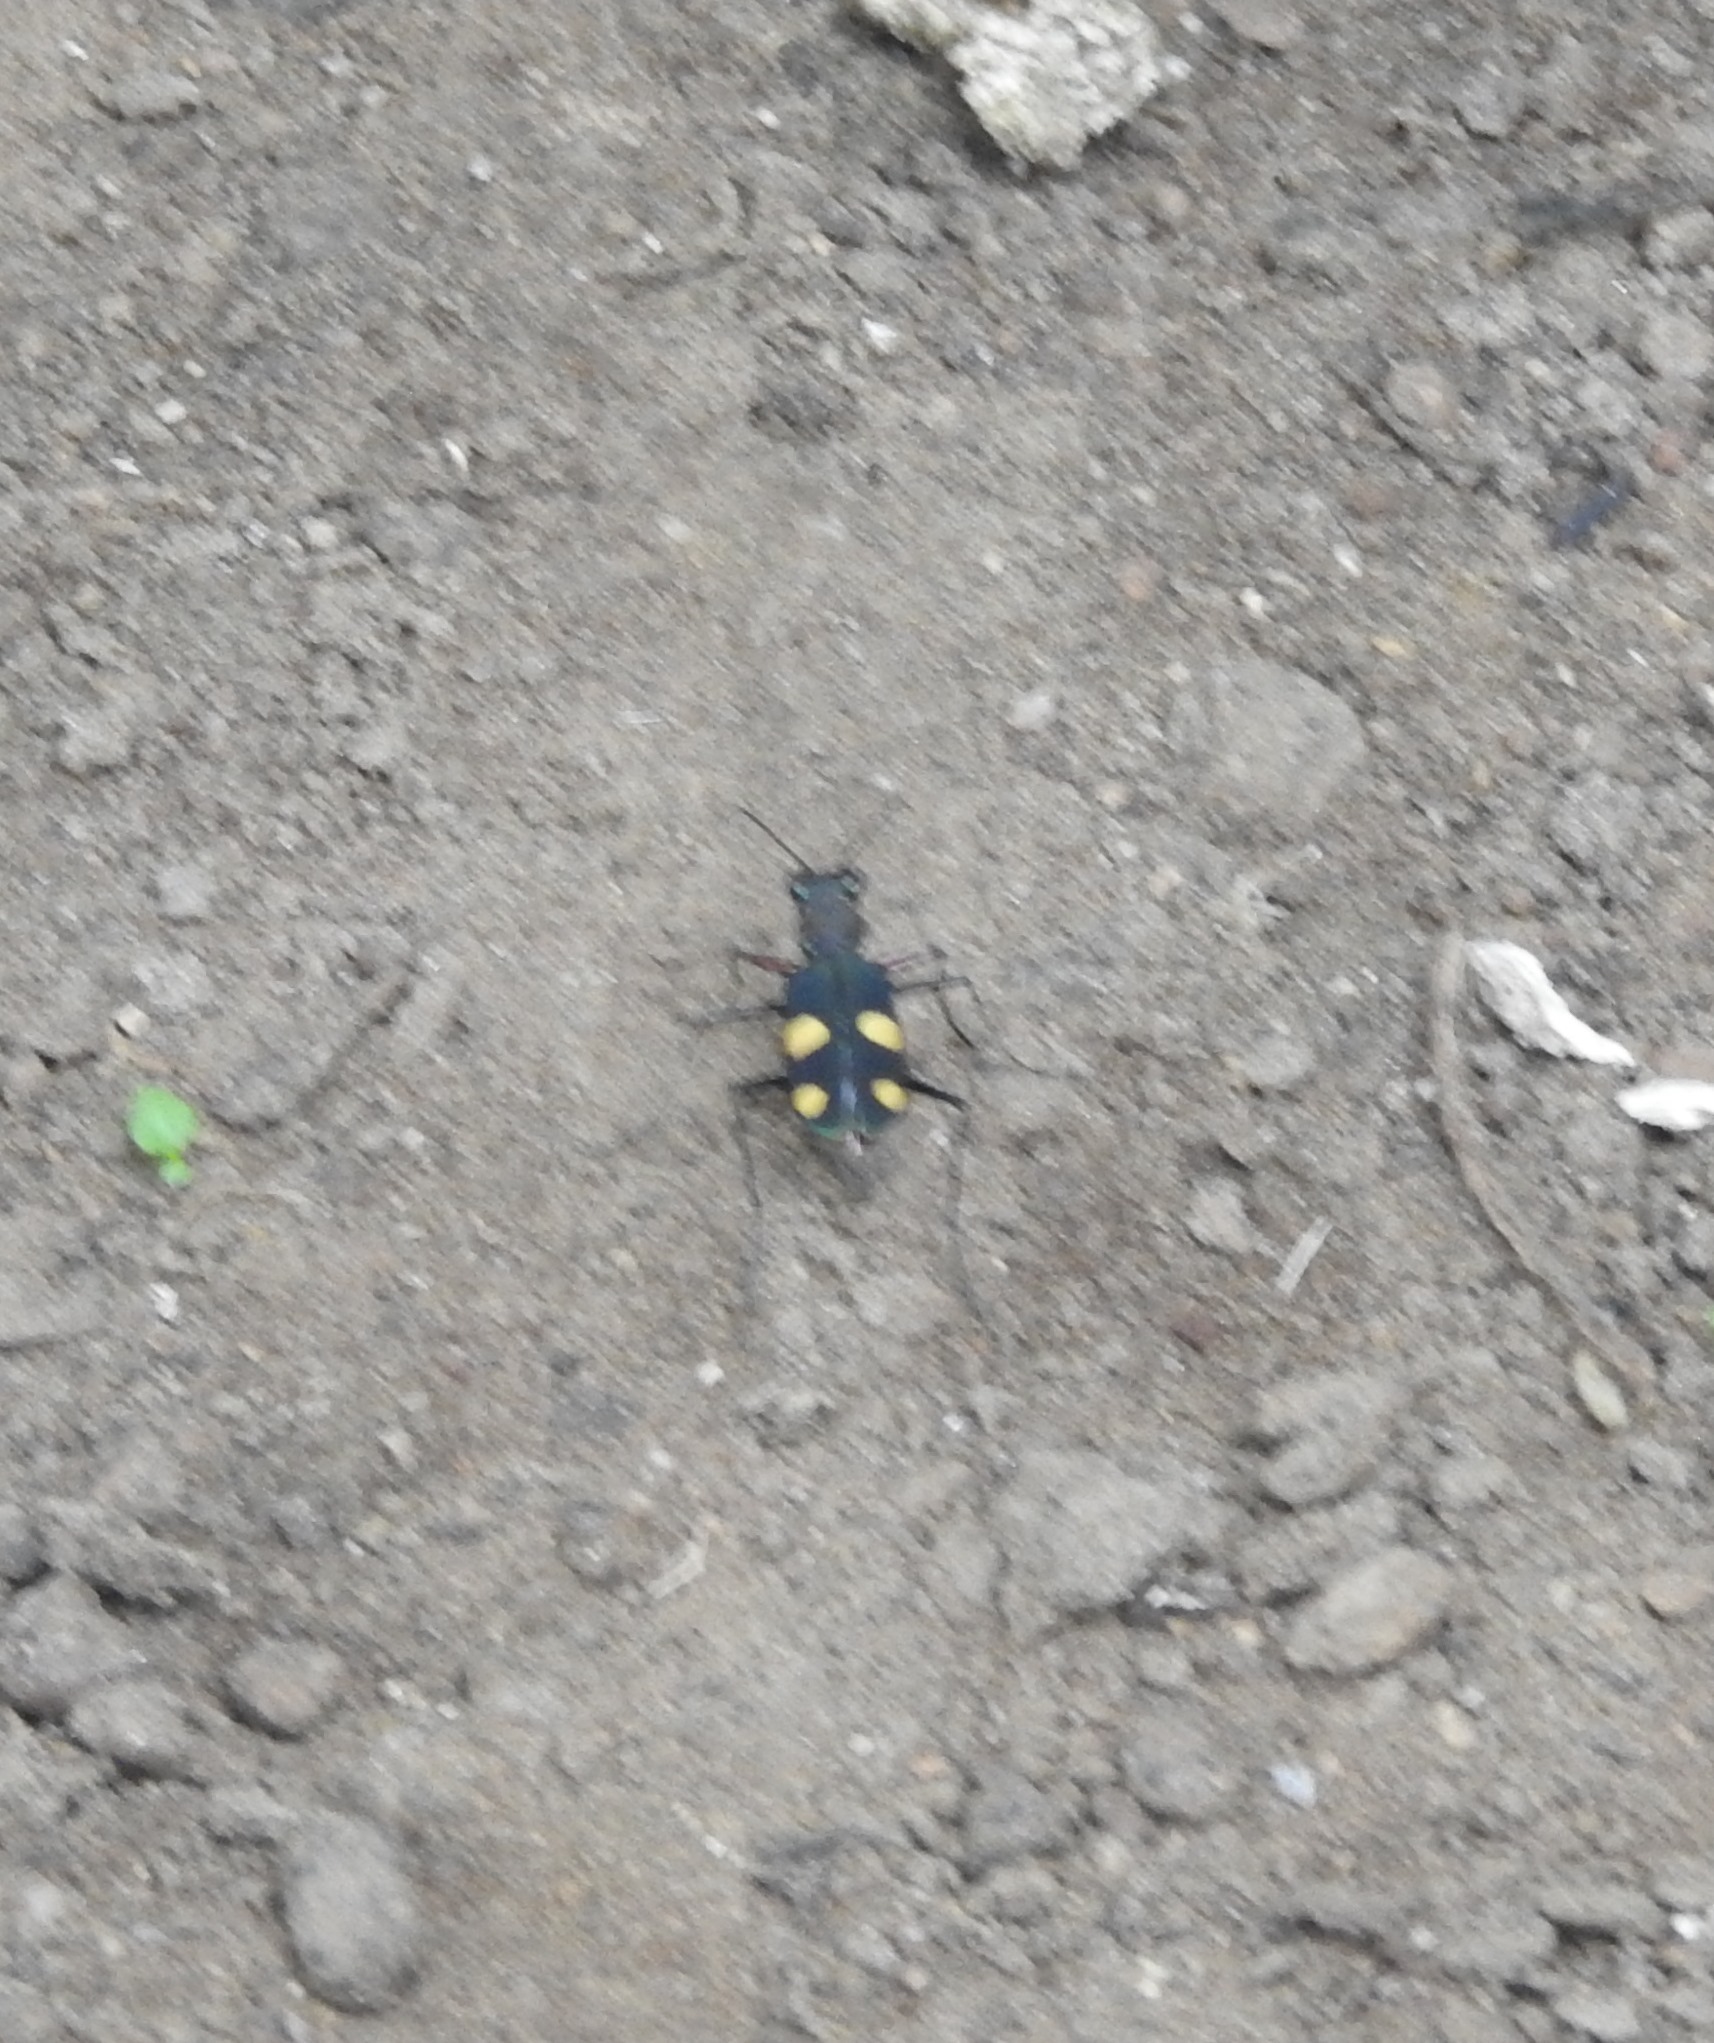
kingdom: Animalia
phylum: Arthropoda
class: Insecta
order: Coleoptera
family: Carabidae
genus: Cicindela
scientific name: Cicindela bicolor
